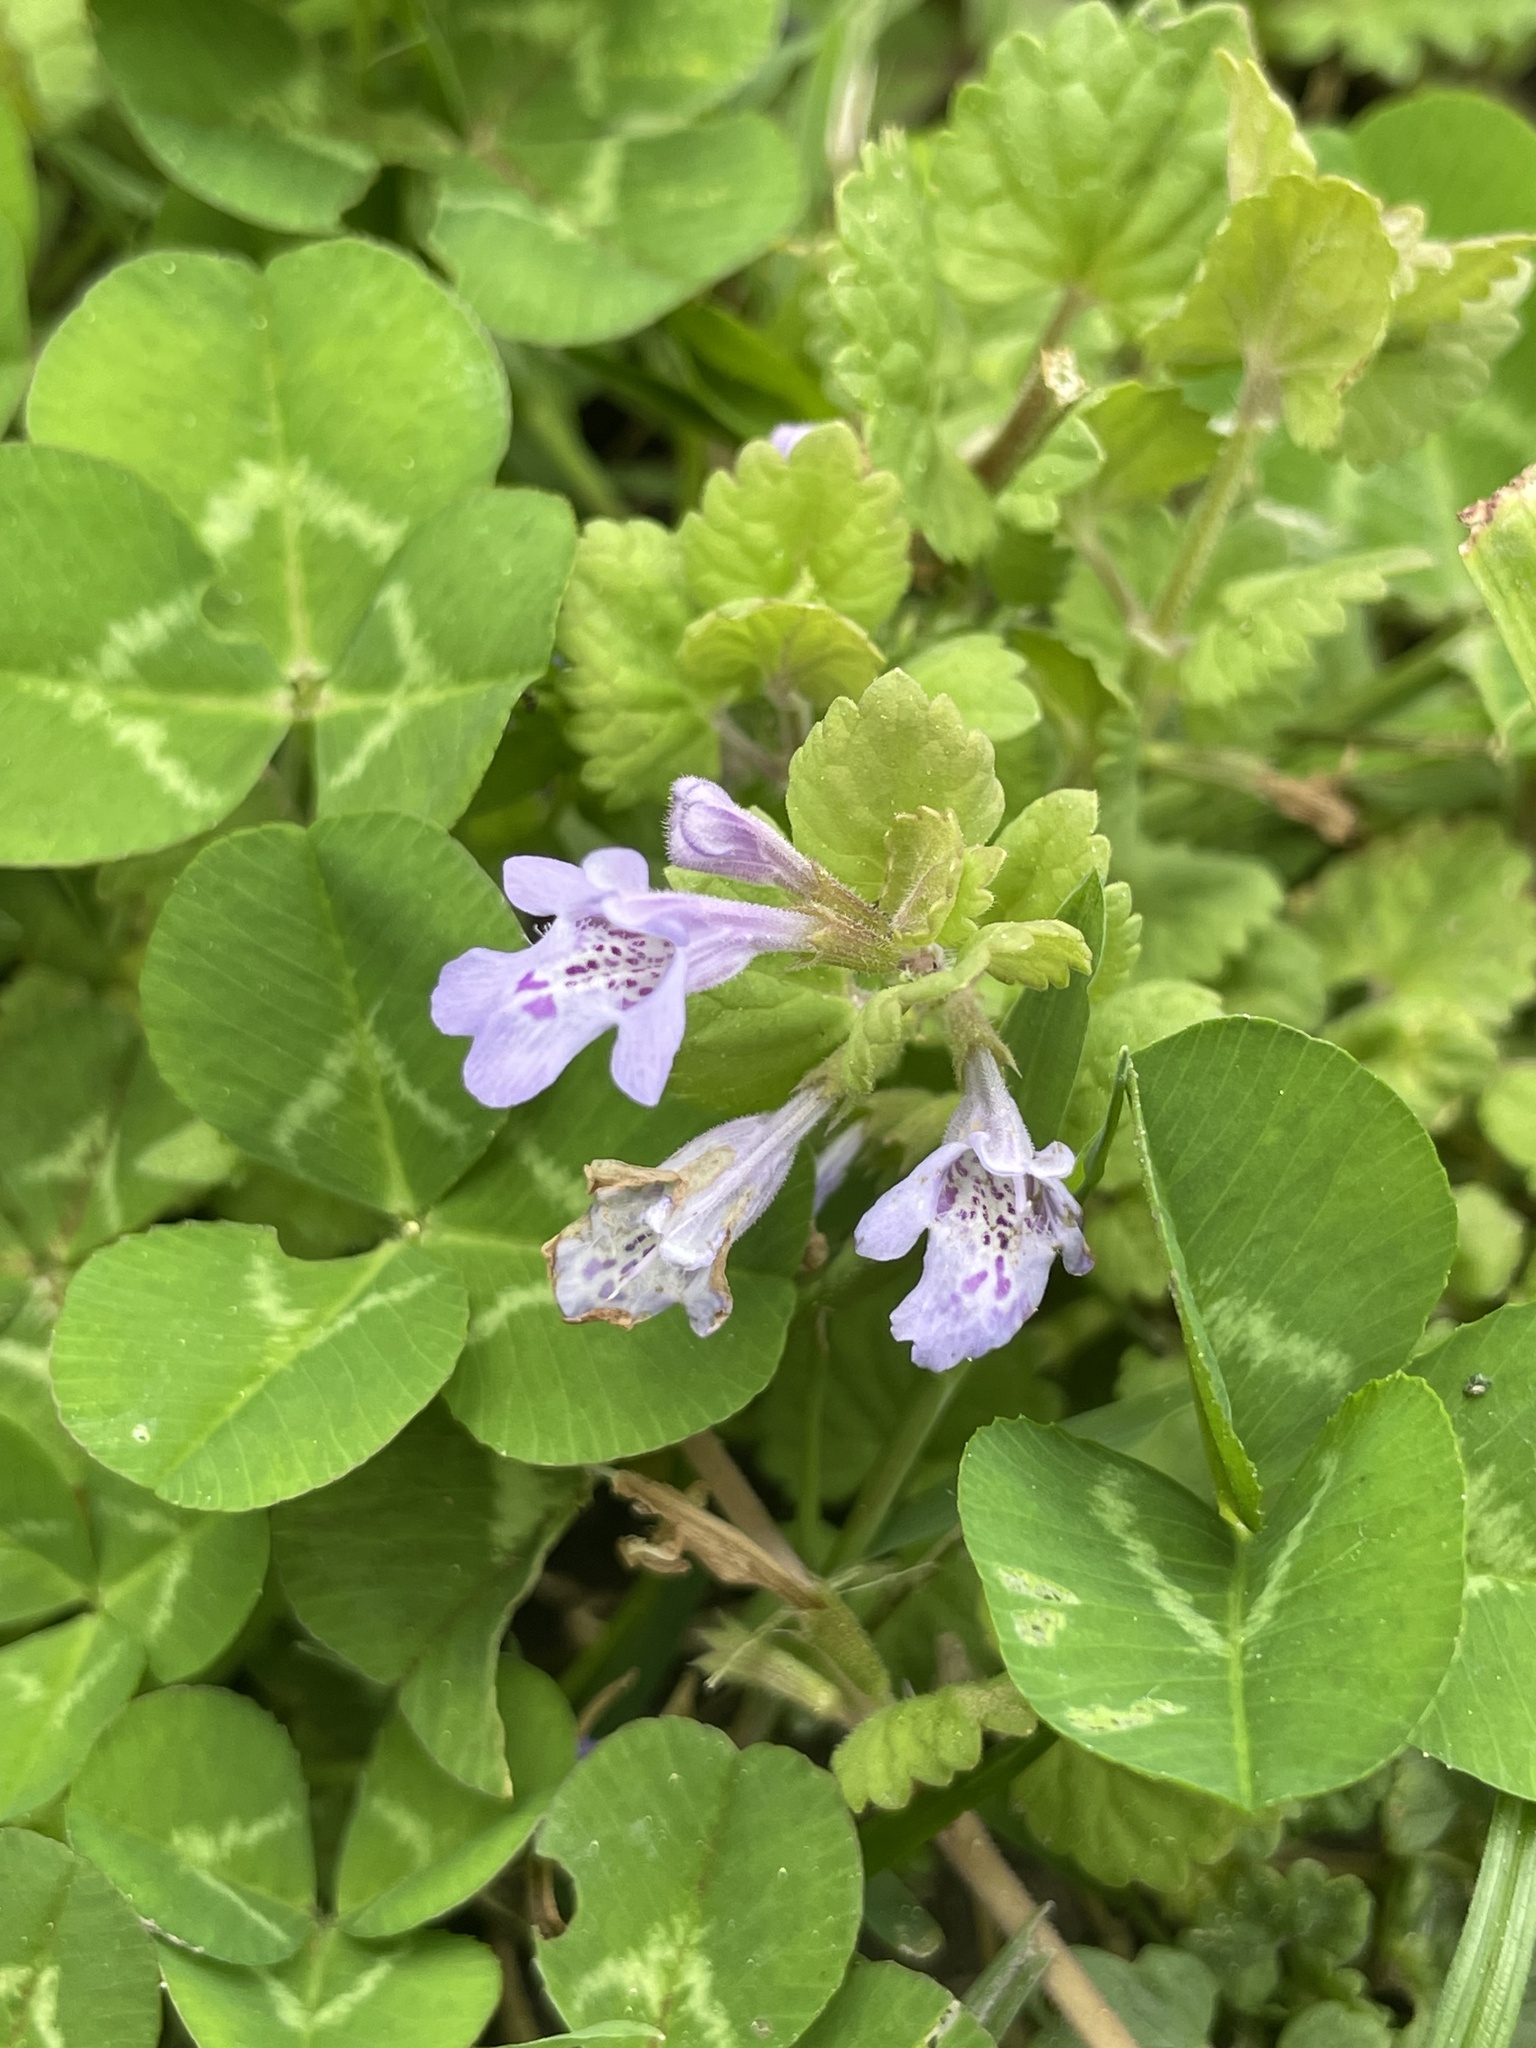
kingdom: Plantae
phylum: Tracheophyta
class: Magnoliopsida
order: Lamiales
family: Lamiaceae
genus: Glechoma
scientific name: Glechoma hederacea
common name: Ground ivy
